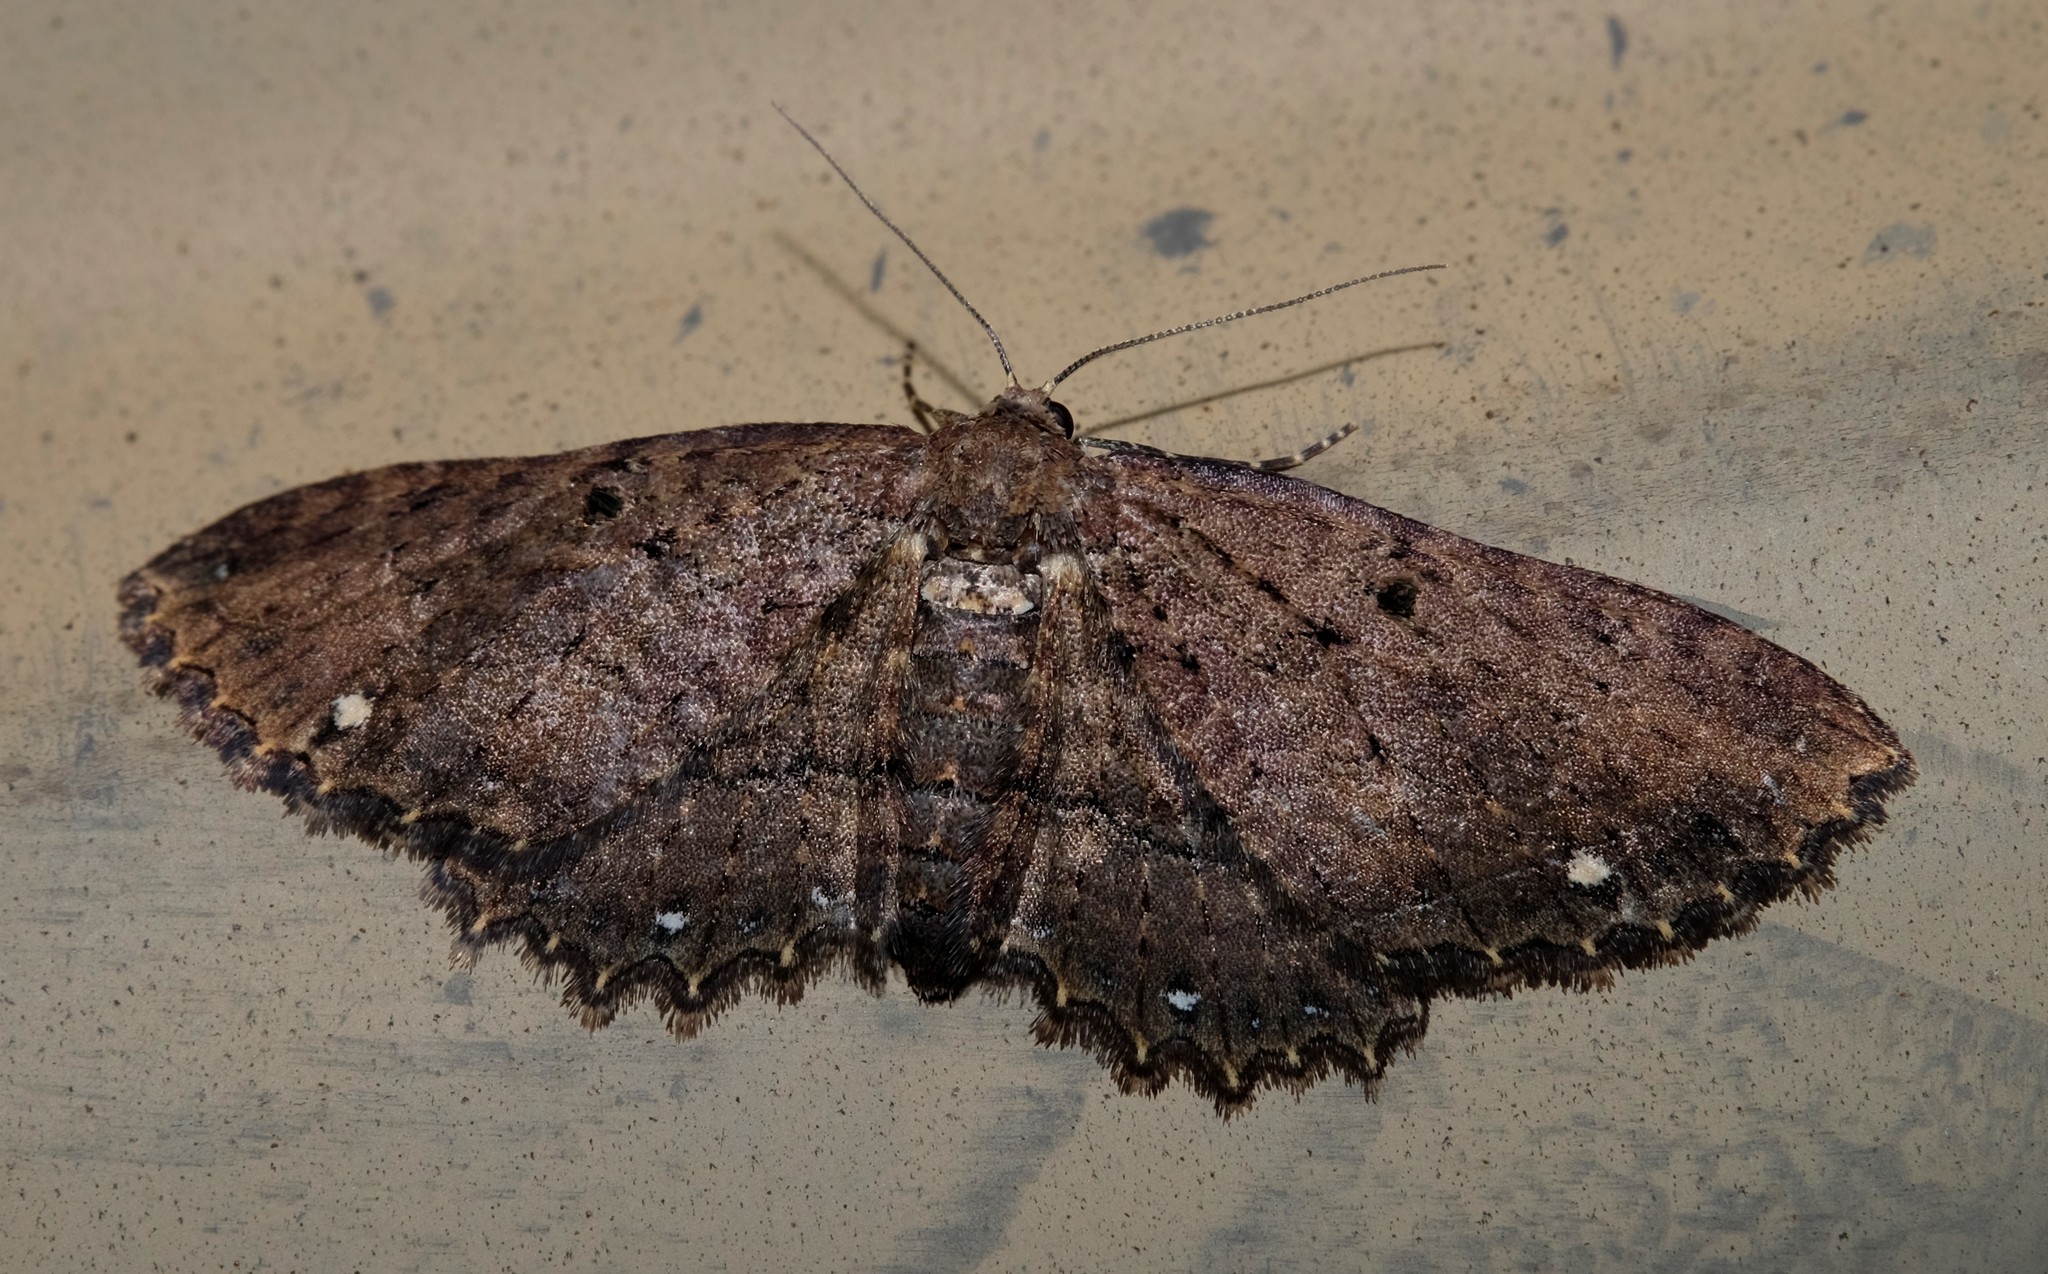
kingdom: Animalia
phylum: Arthropoda
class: Insecta
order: Lepidoptera
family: Geometridae
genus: Eccymatoge
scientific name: Eccymatoge callizona
